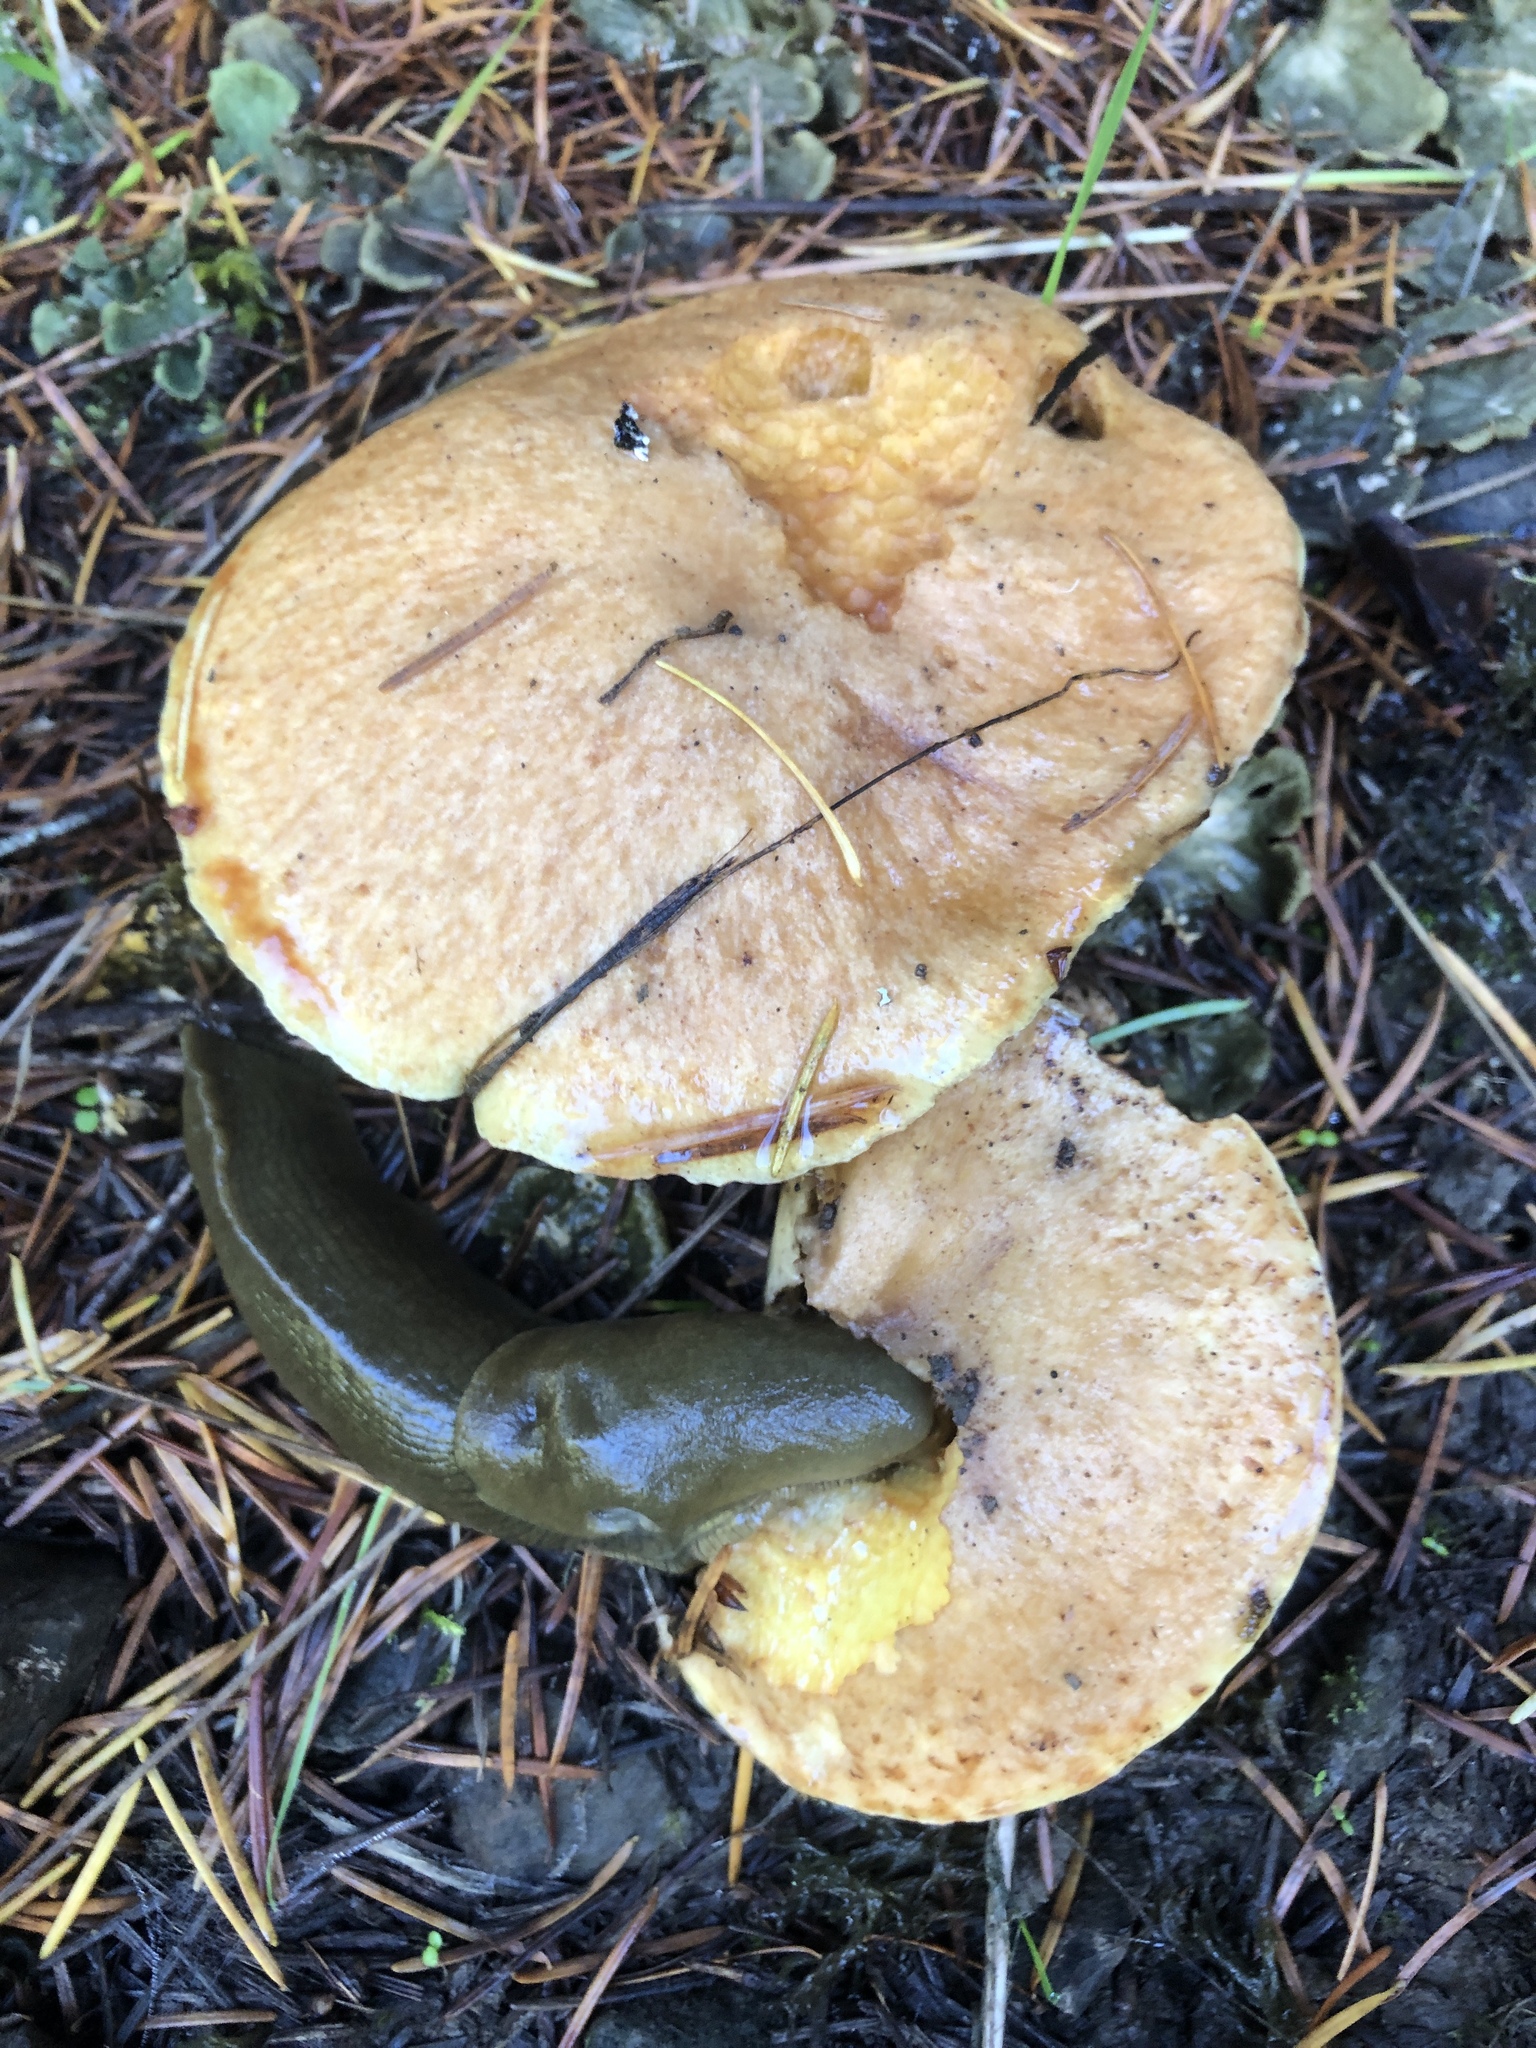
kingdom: Animalia
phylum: Mollusca
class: Gastropoda
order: Stylommatophora
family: Ariolimacidae
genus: Ariolimax
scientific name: Ariolimax columbianus
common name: Pacific banana slug
